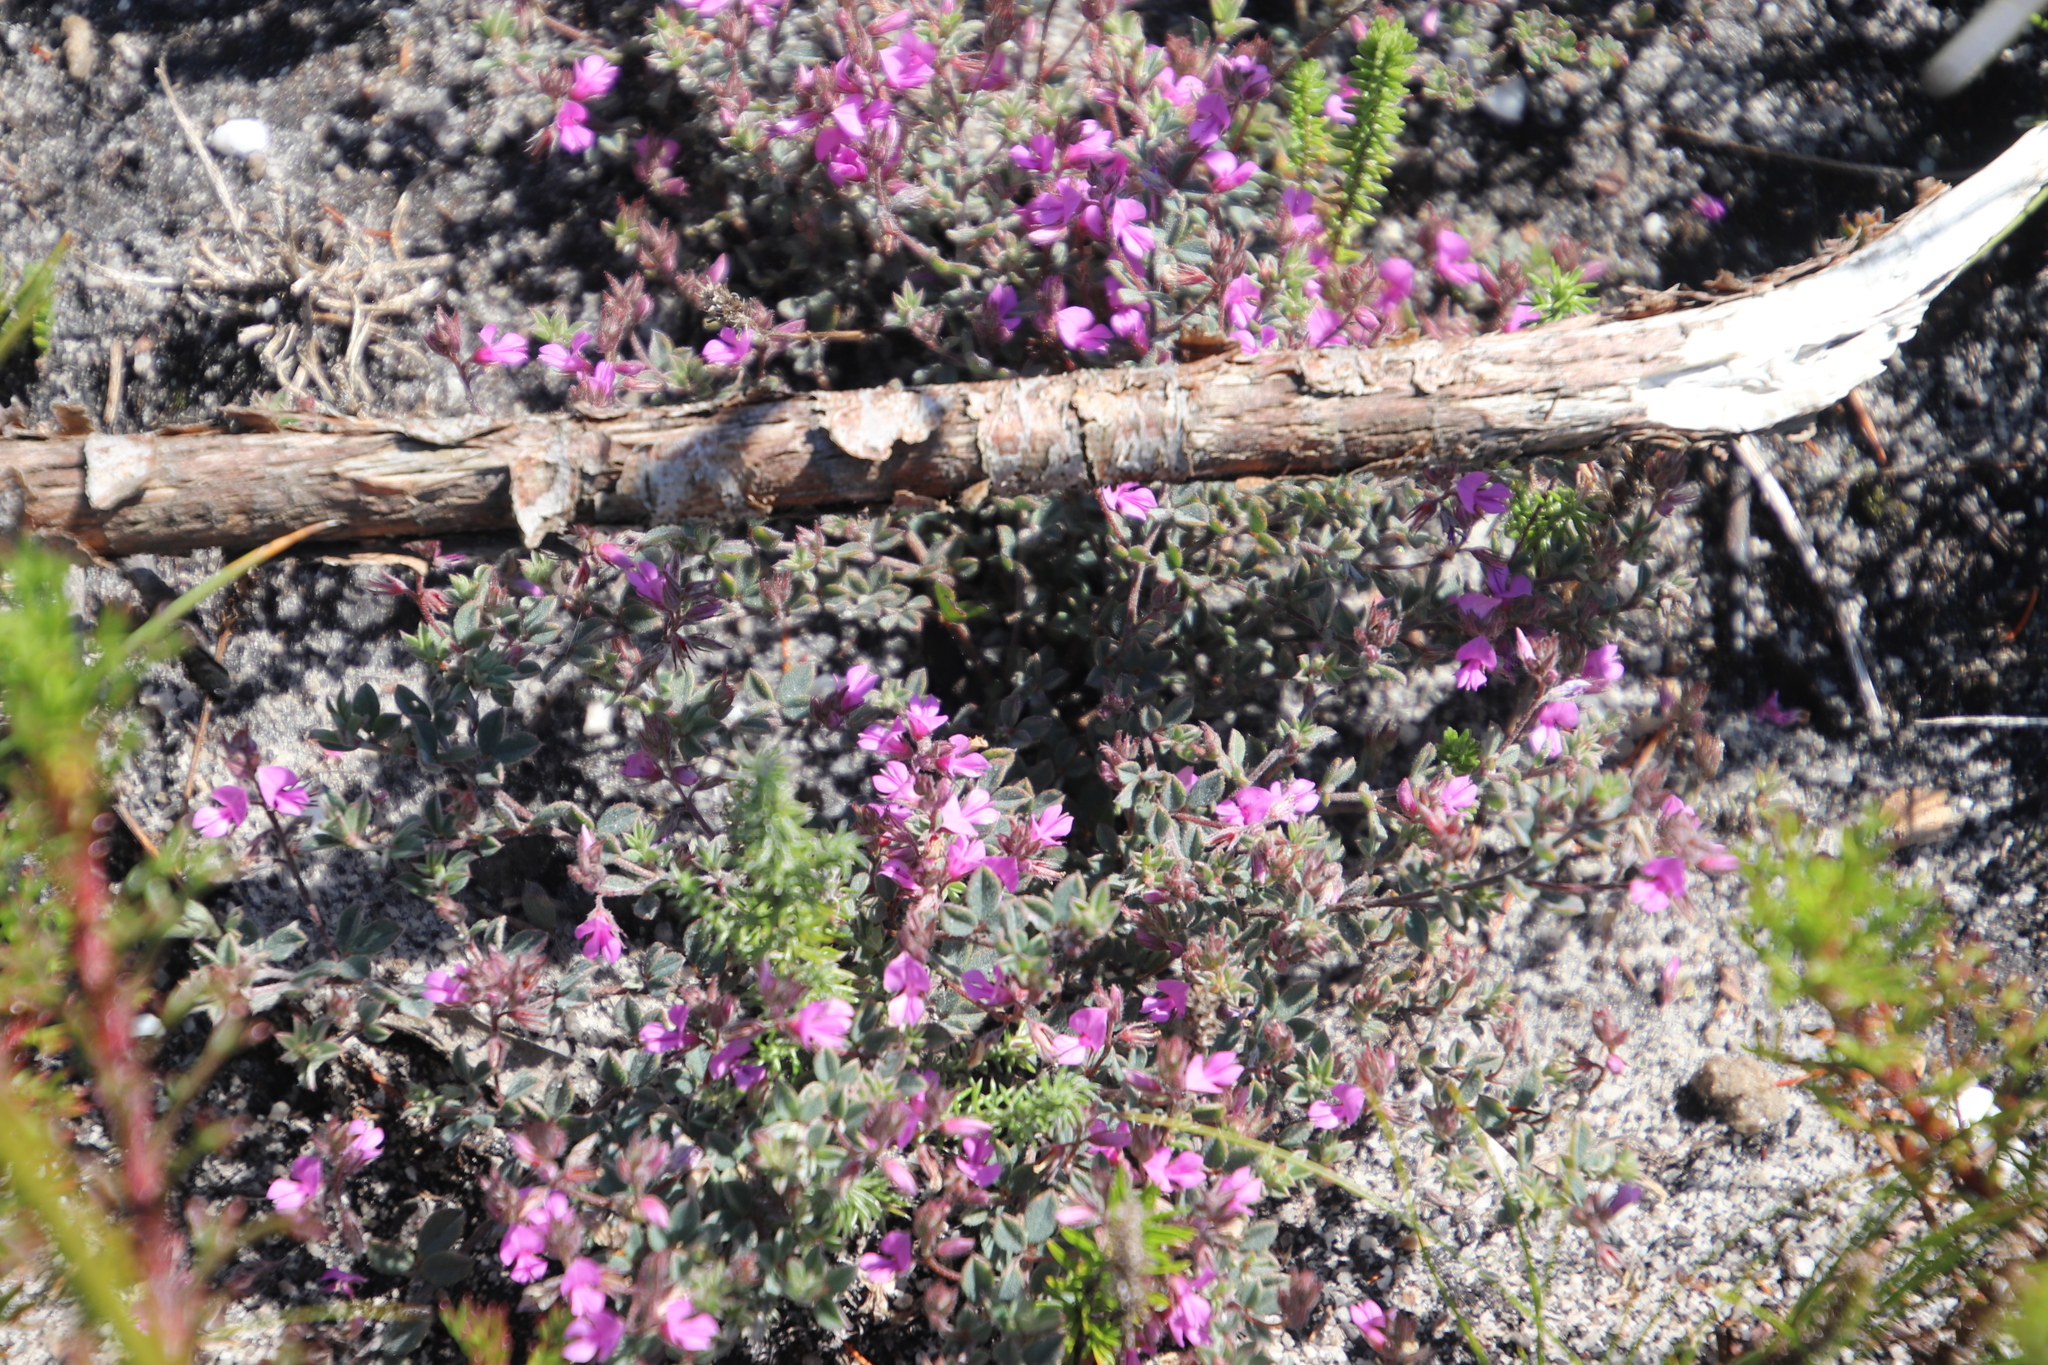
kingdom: Plantae
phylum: Tracheophyta
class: Magnoliopsida
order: Fabales
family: Fabaceae
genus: Indigofera
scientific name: Indigofera
